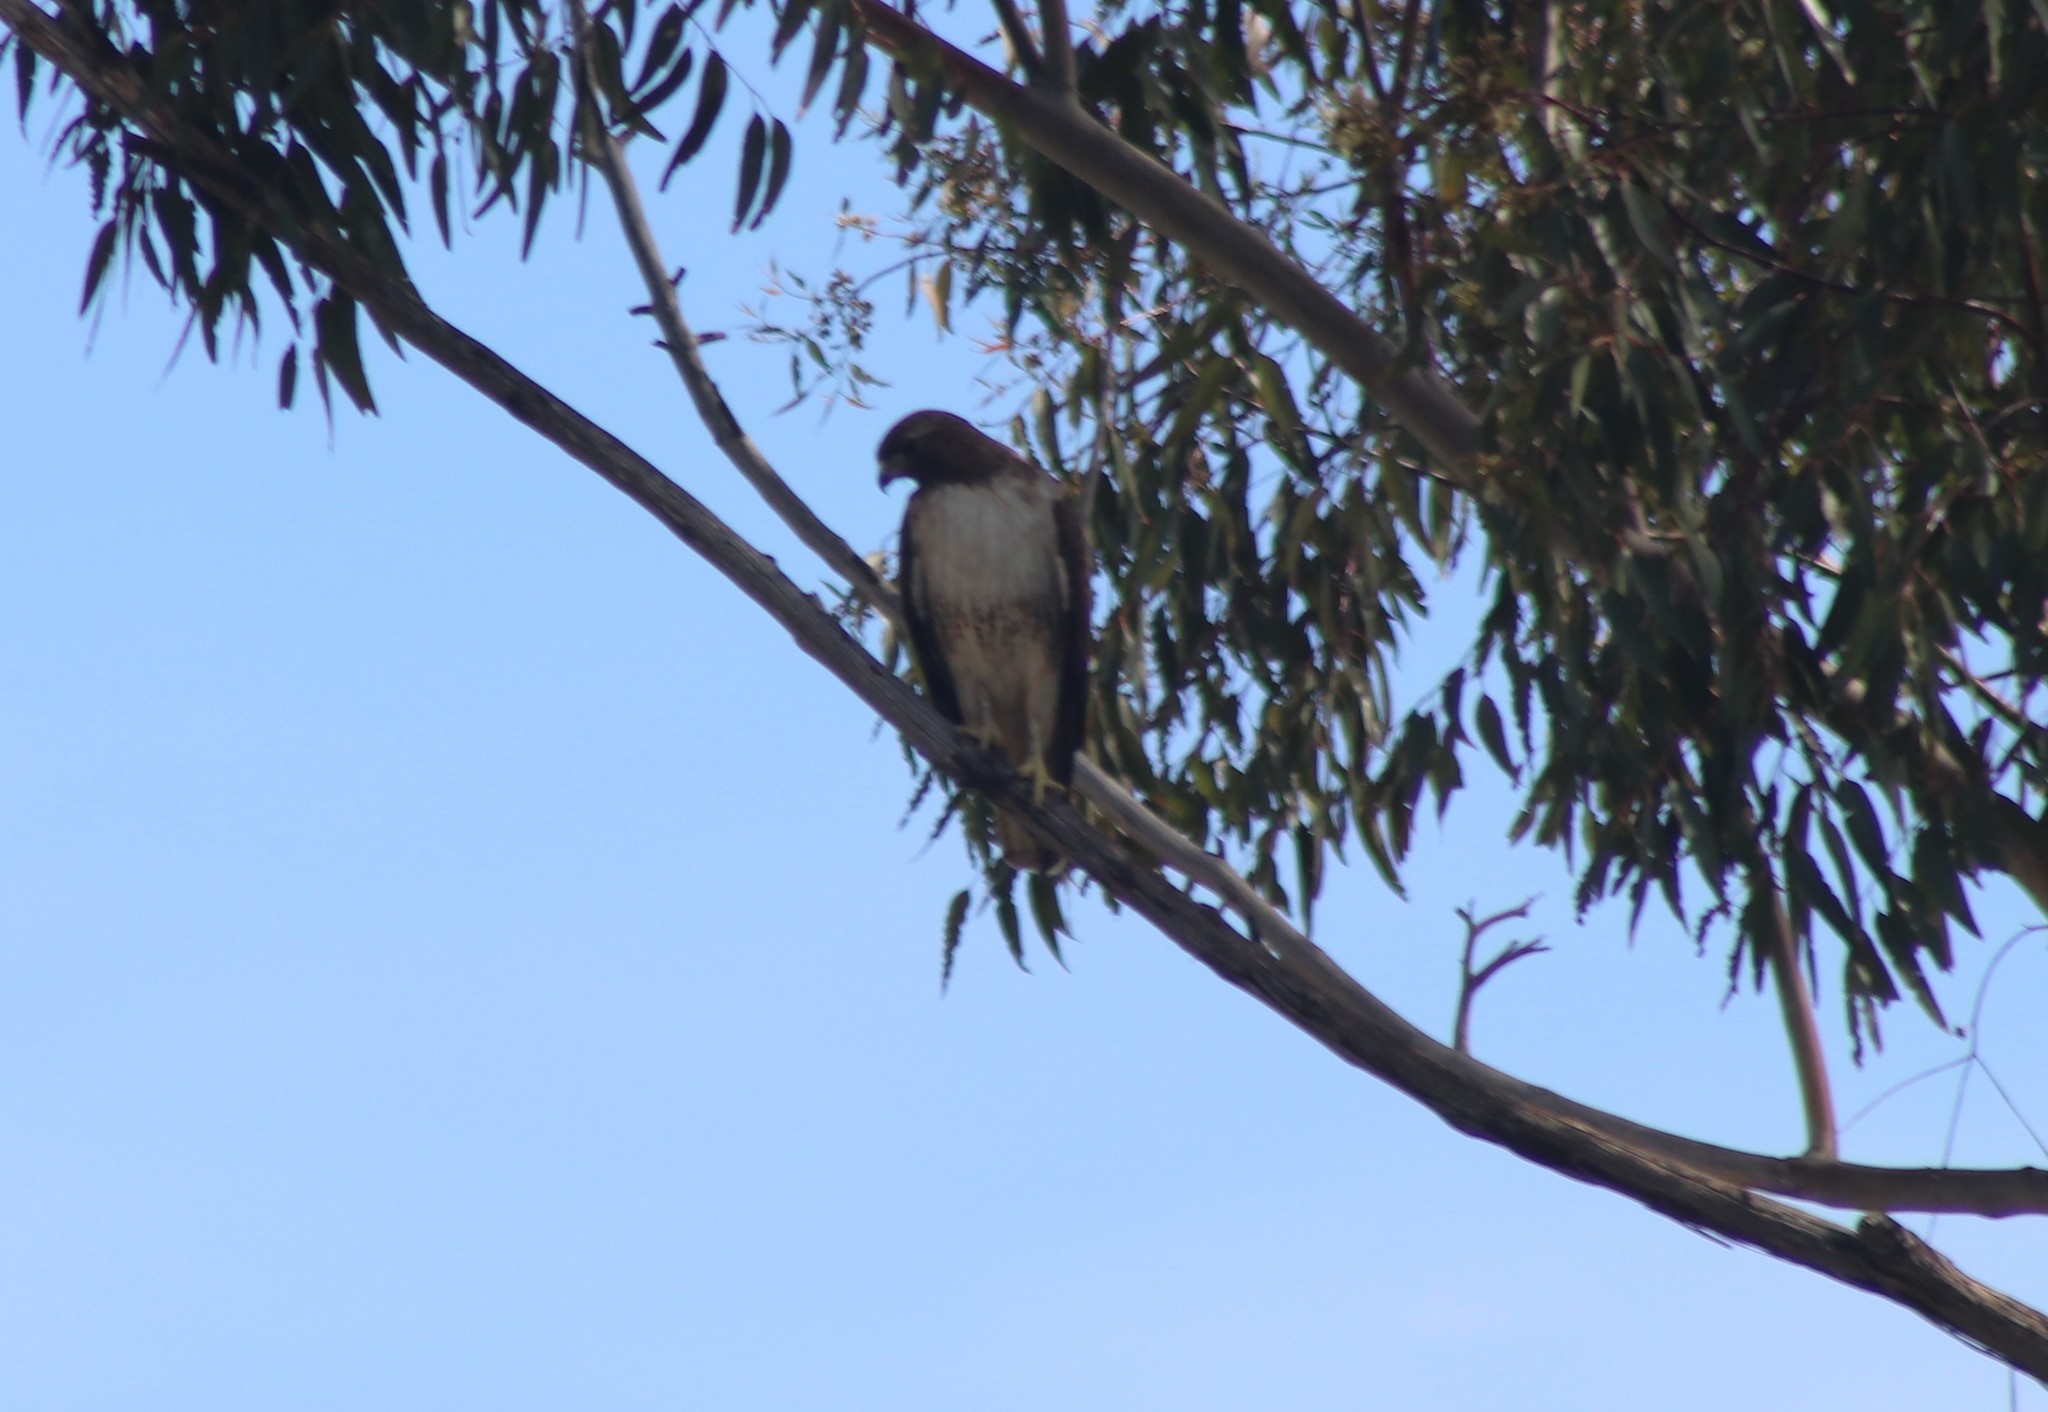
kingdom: Animalia
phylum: Chordata
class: Aves
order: Accipitriformes
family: Accipitridae
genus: Buteo
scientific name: Buteo jamaicensis
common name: Red-tailed hawk
